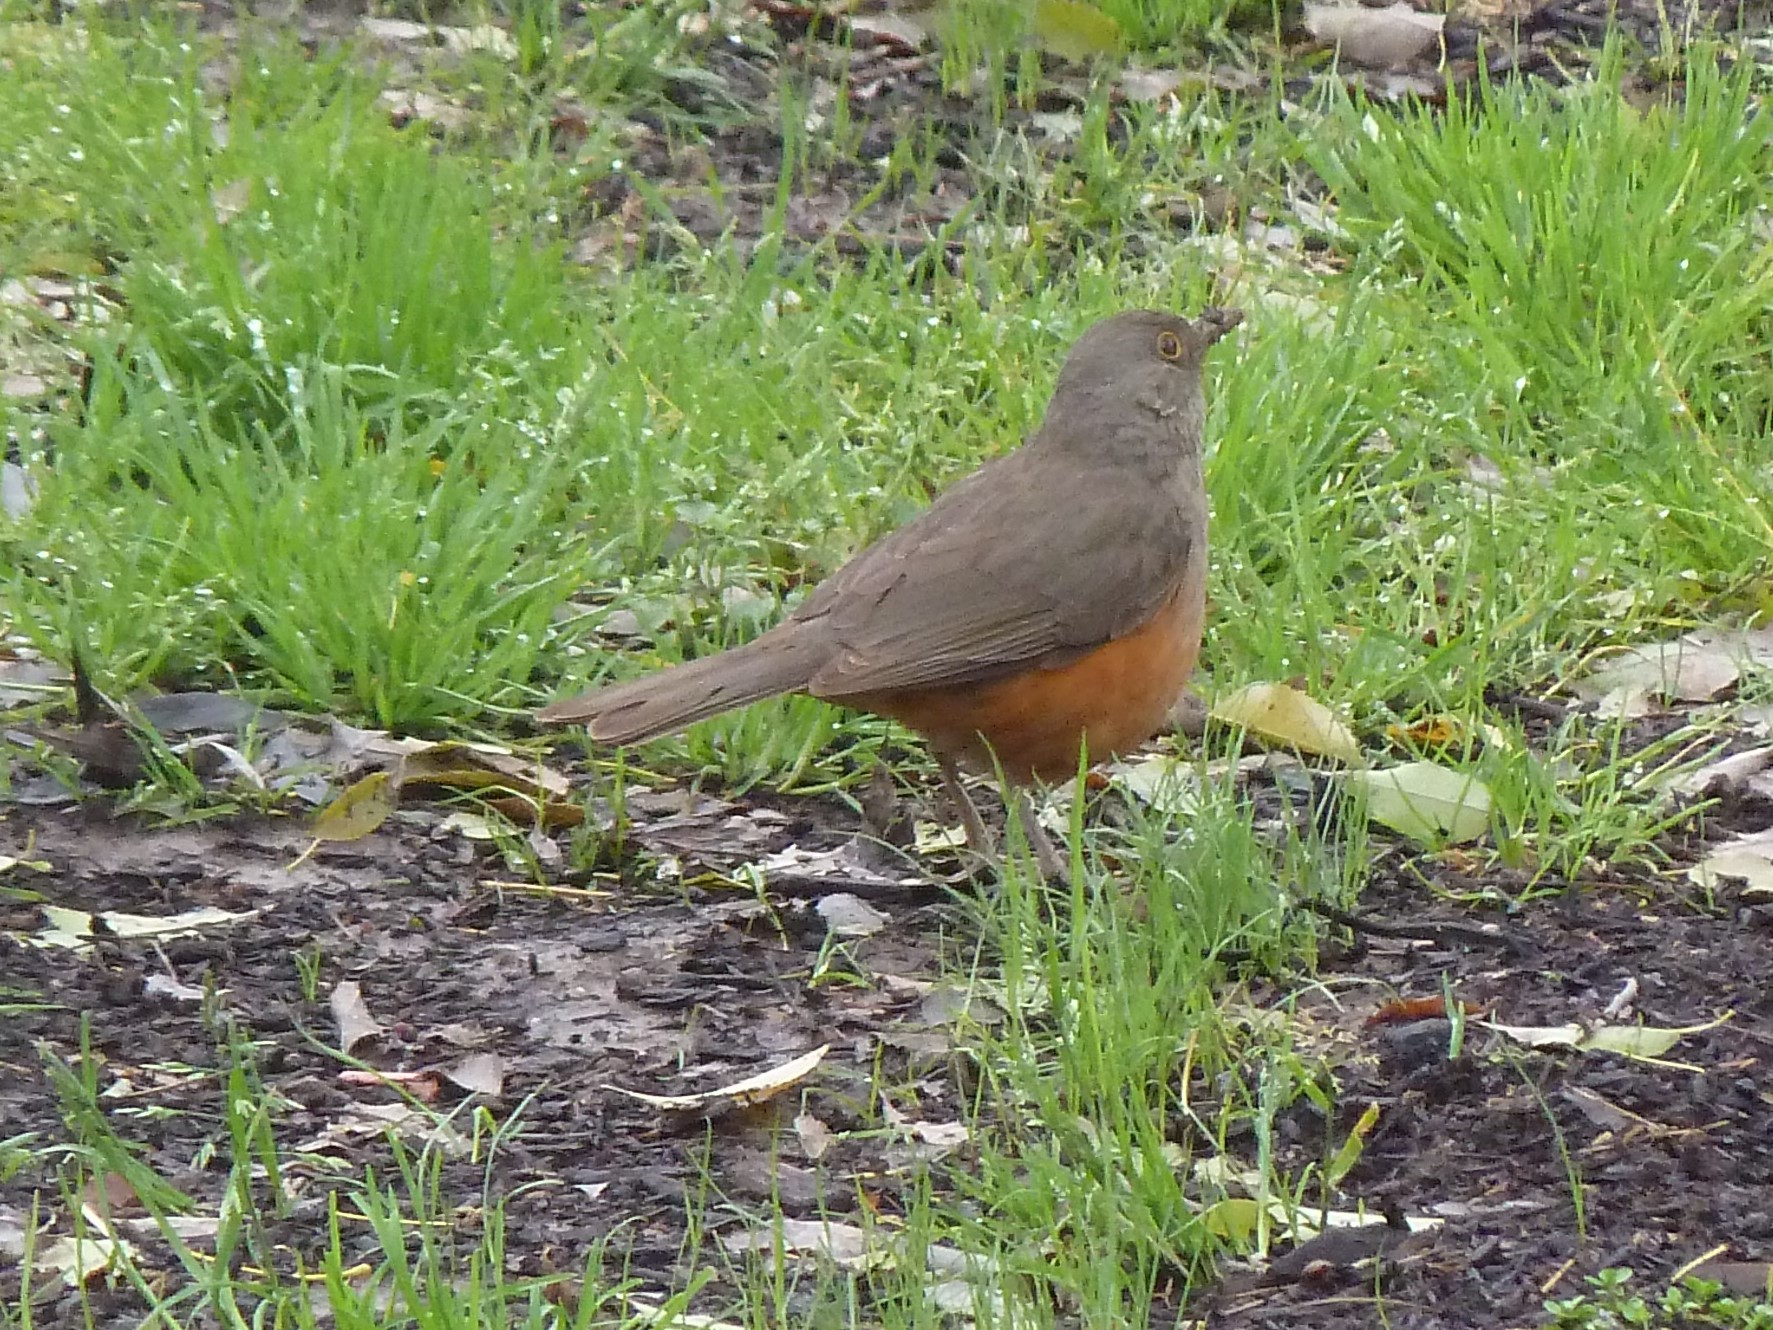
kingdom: Animalia
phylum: Chordata
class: Aves
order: Passeriformes
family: Turdidae
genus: Turdus
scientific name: Turdus rufiventris
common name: Rufous-bellied thrush
